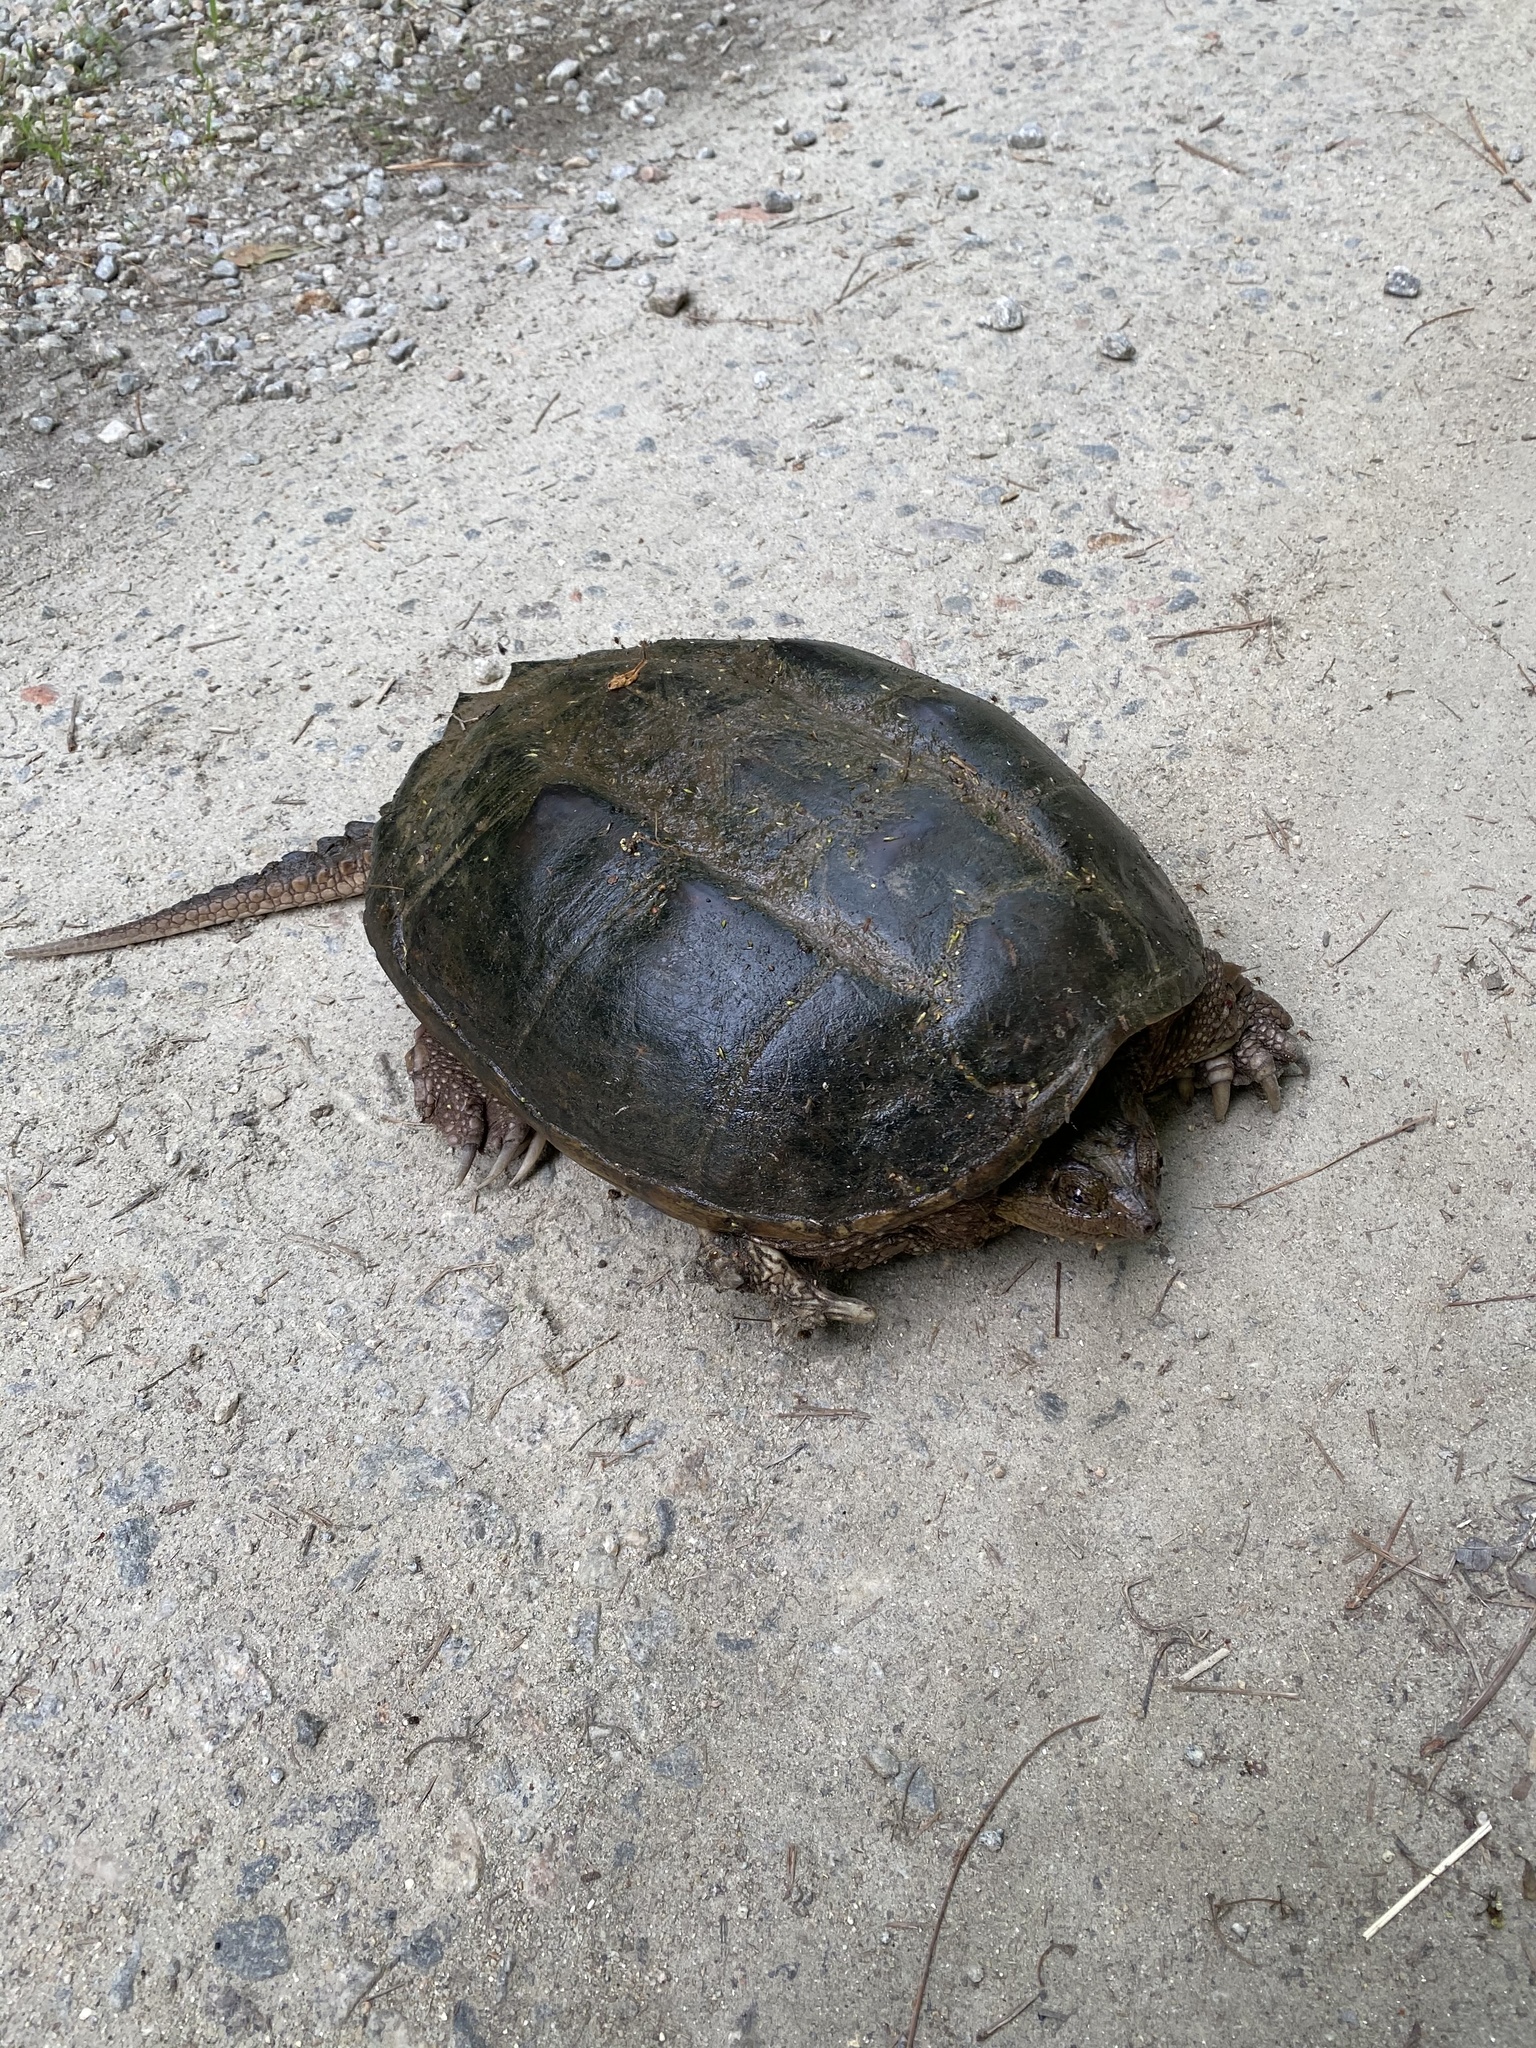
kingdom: Animalia
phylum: Chordata
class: Testudines
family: Chelydridae
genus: Chelydra
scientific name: Chelydra serpentina
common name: Common snapping turtle
